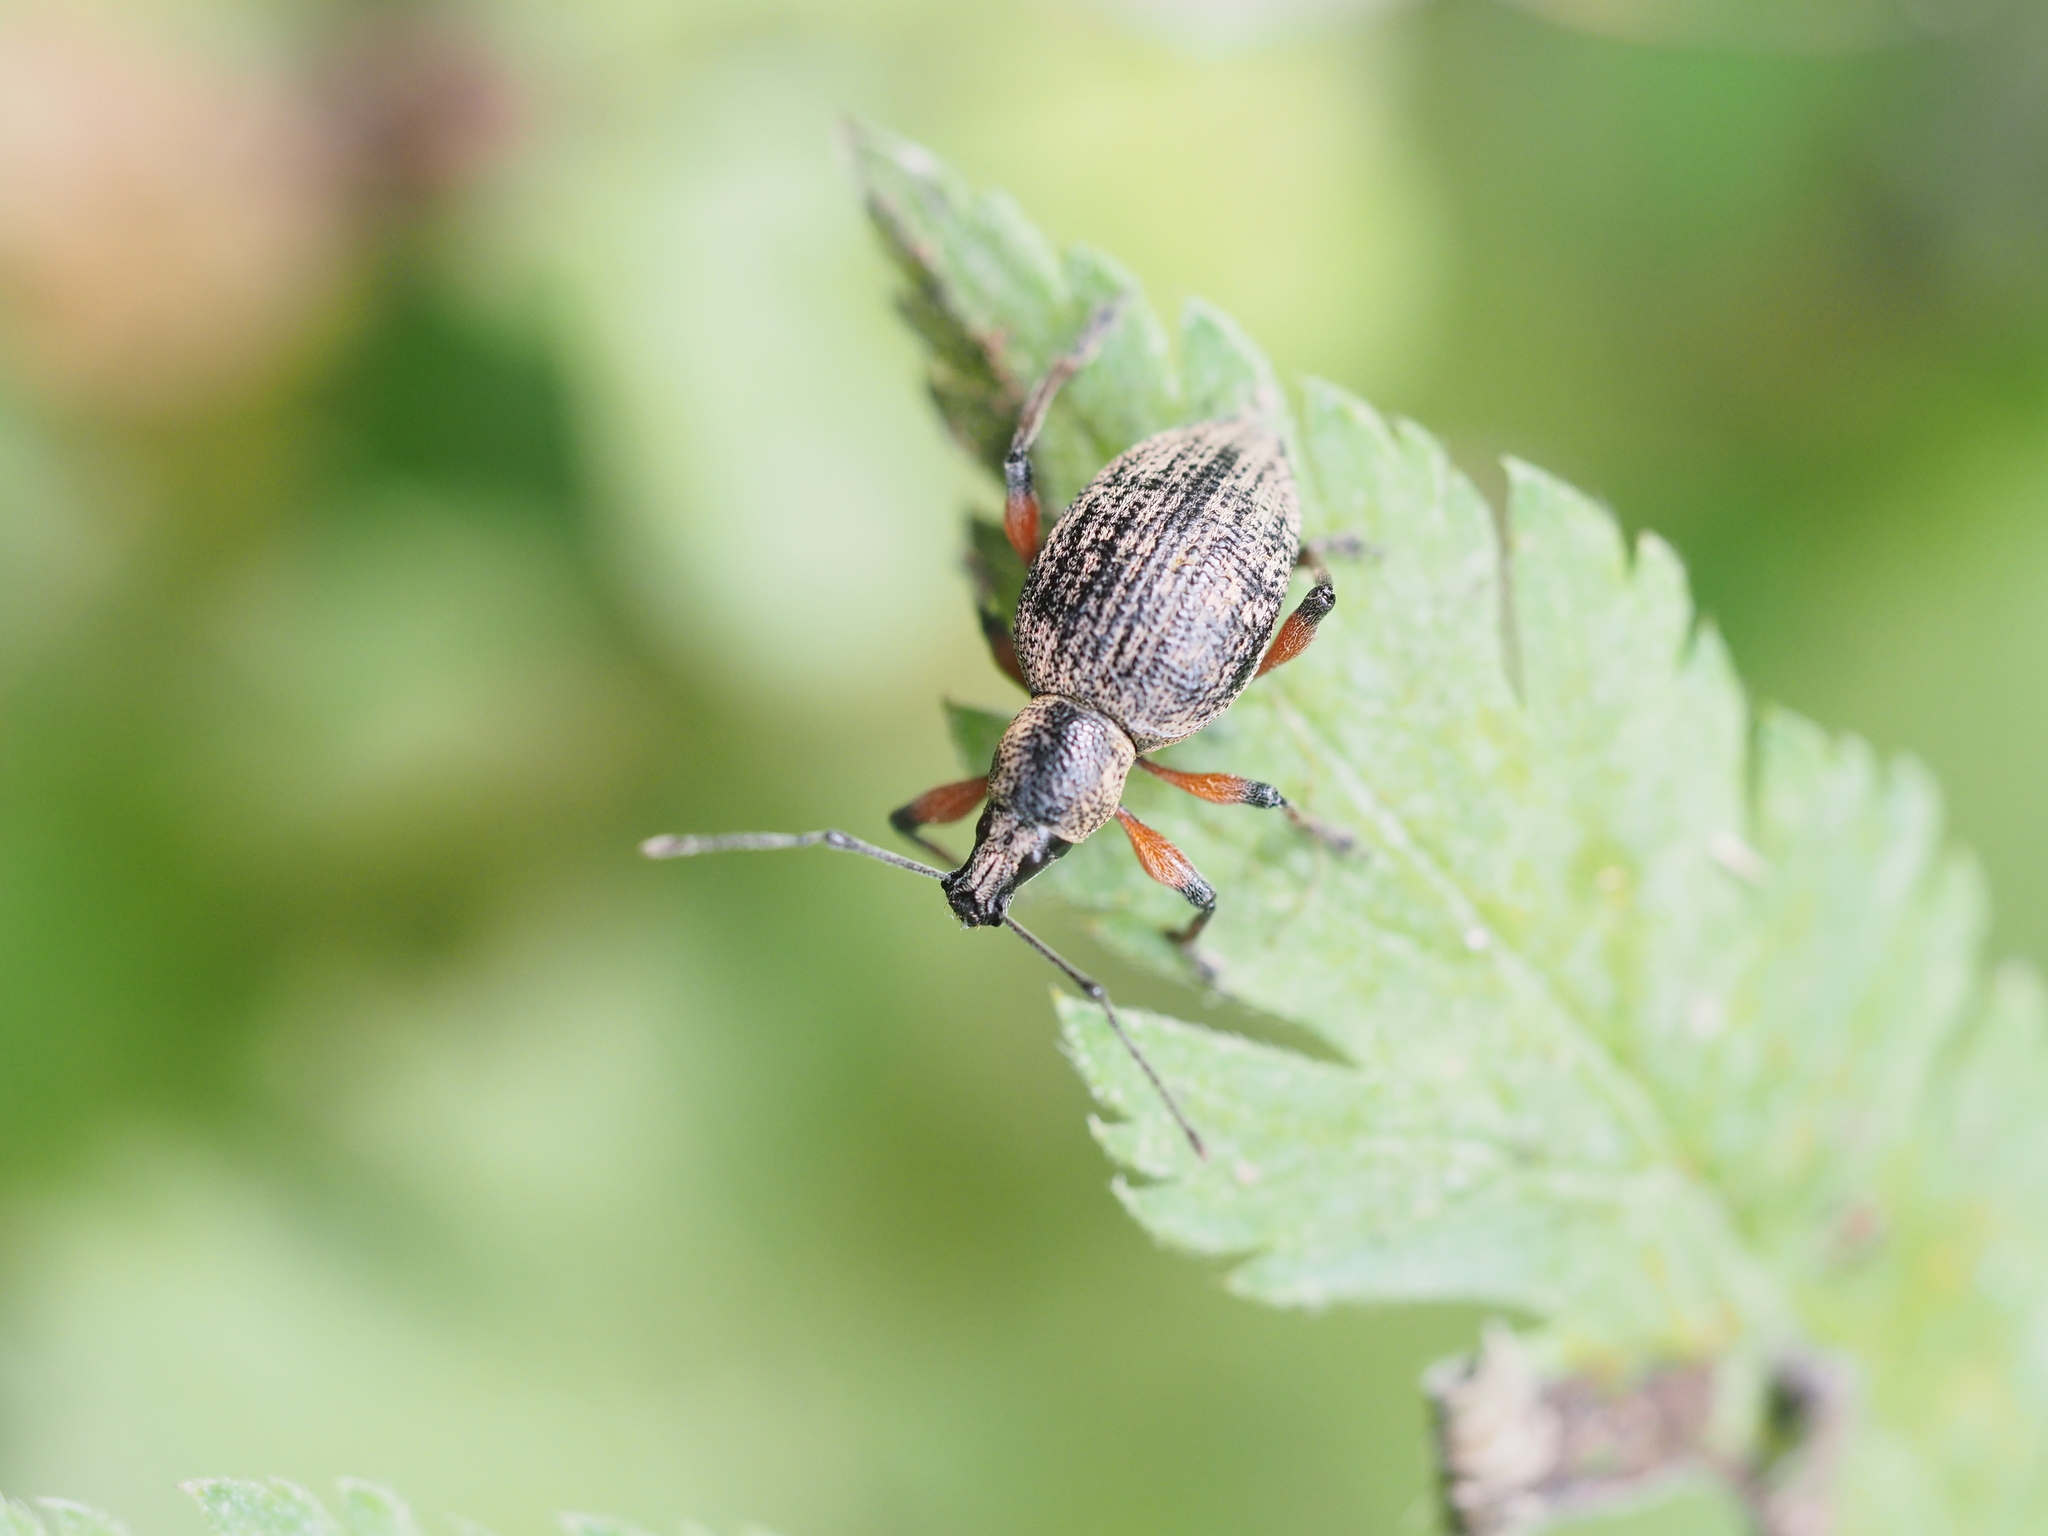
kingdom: Animalia
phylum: Arthropoda
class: Insecta
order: Coleoptera
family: Curculionidae
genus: Otiorhynchus
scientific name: Otiorhynchus sensitivus
